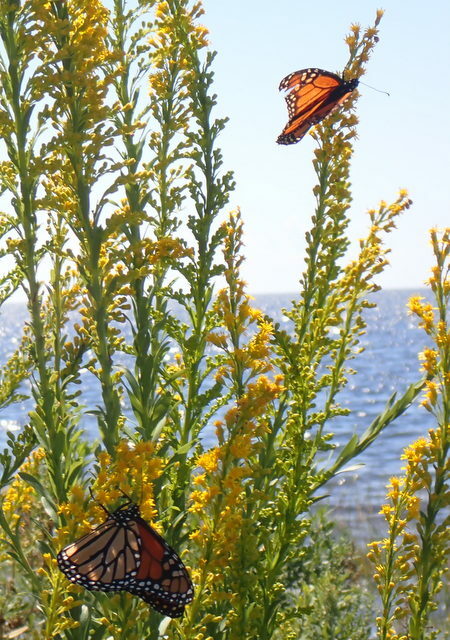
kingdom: Animalia
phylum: Arthropoda
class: Insecta
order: Lepidoptera
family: Nymphalidae
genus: Danaus
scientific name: Danaus plexippus
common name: Monarch
